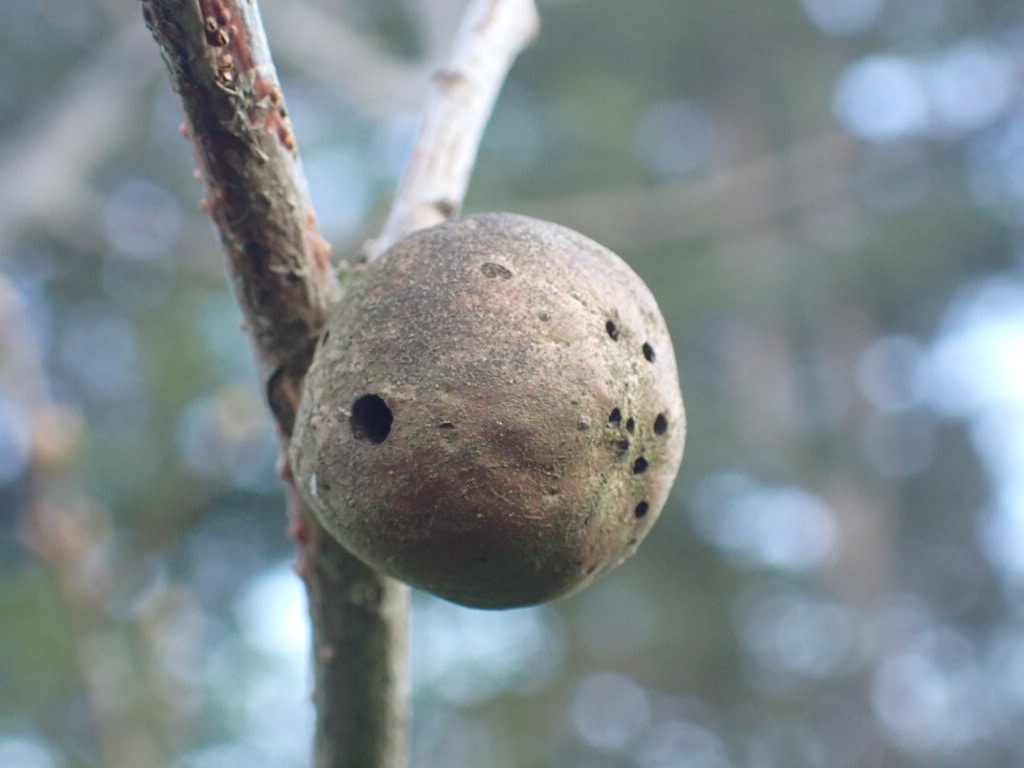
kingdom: Animalia
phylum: Arthropoda
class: Insecta
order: Hymenoptera
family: Cynipidae
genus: Andricus
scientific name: Andricus kollari
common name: Marble gall
